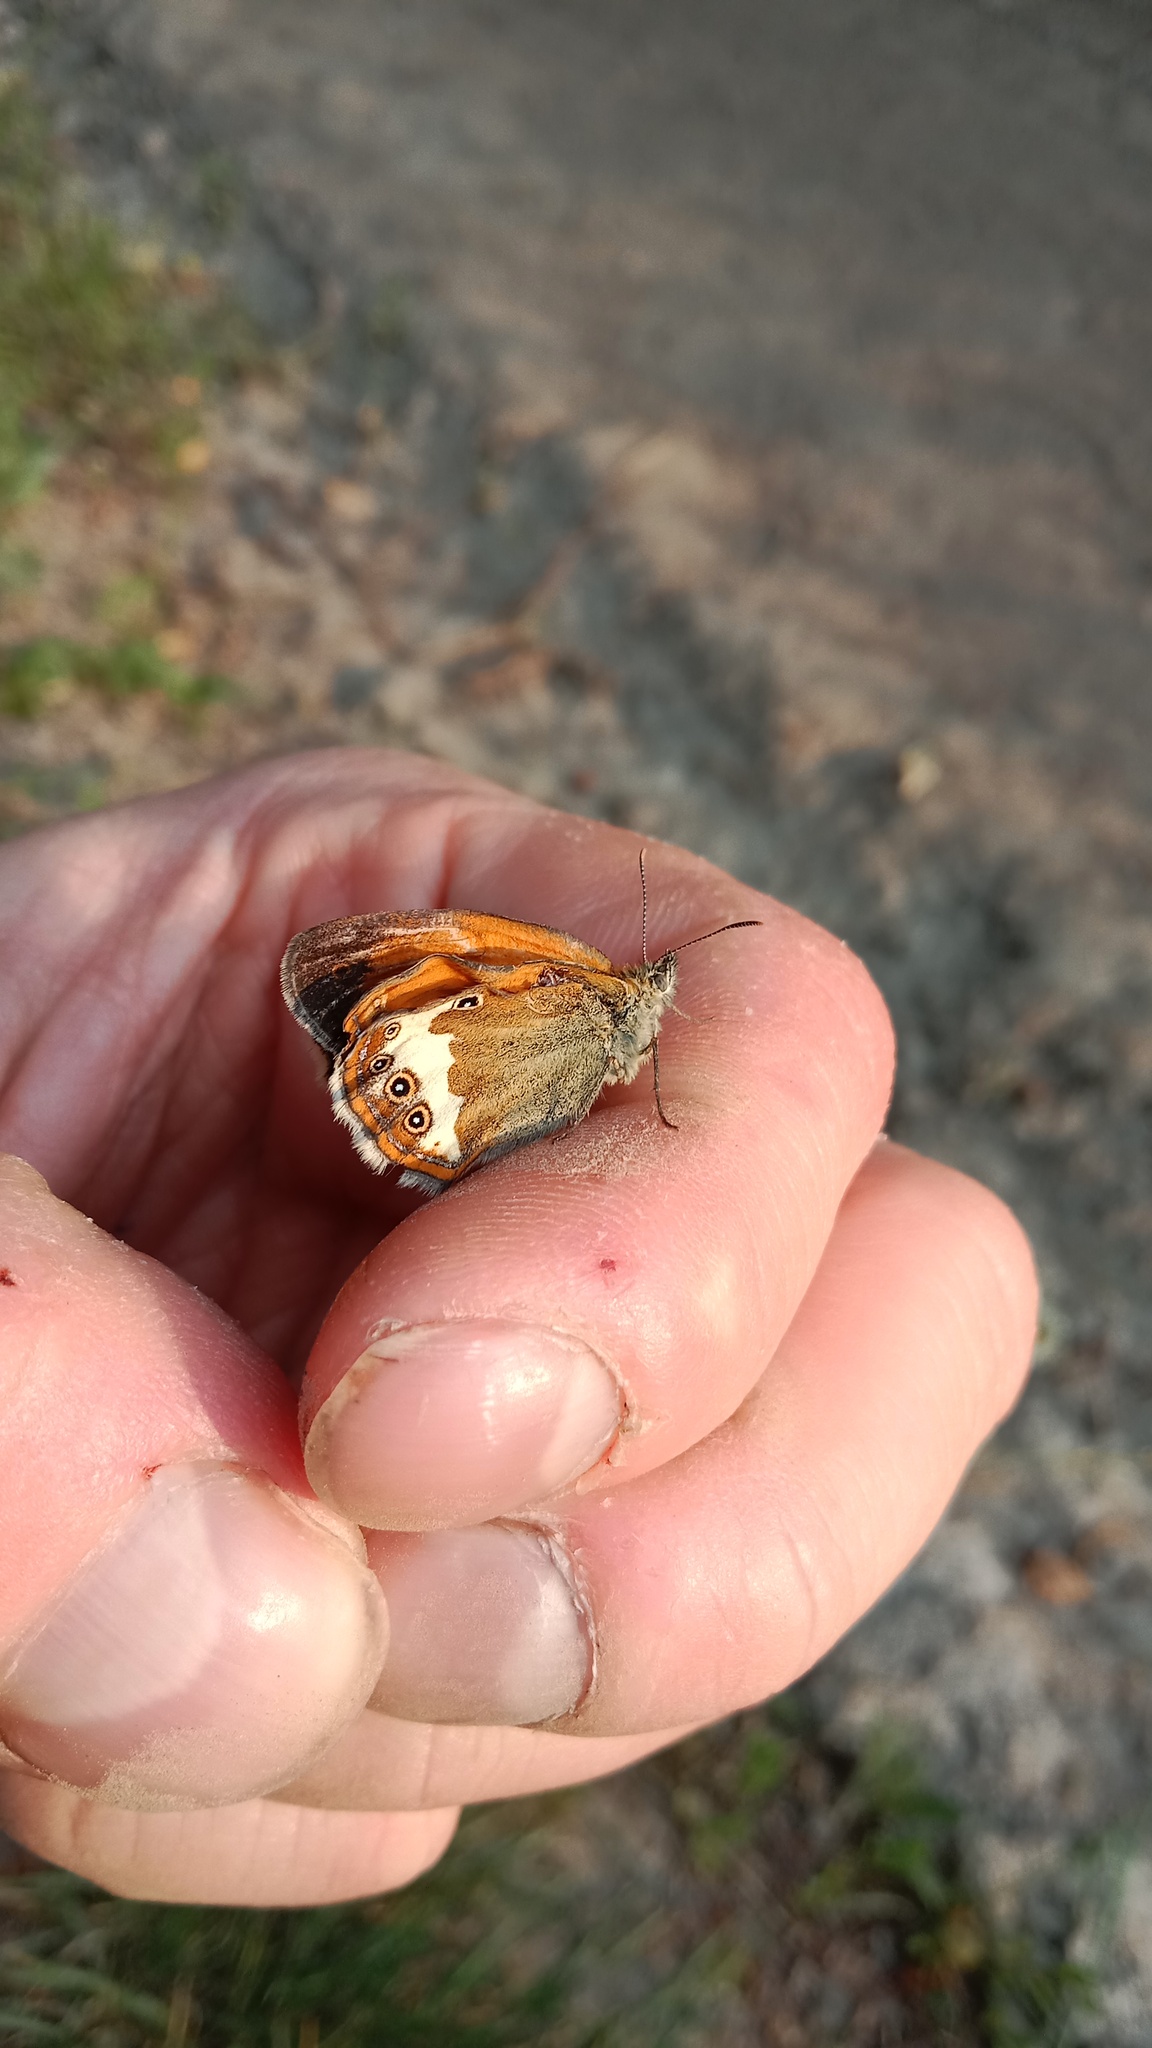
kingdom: Animalia
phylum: Arthropoda
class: Insecta
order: Lepidoptera
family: Nymphalidae
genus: Coenonympha
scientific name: Coenonympha arcania
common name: Pearly heath
